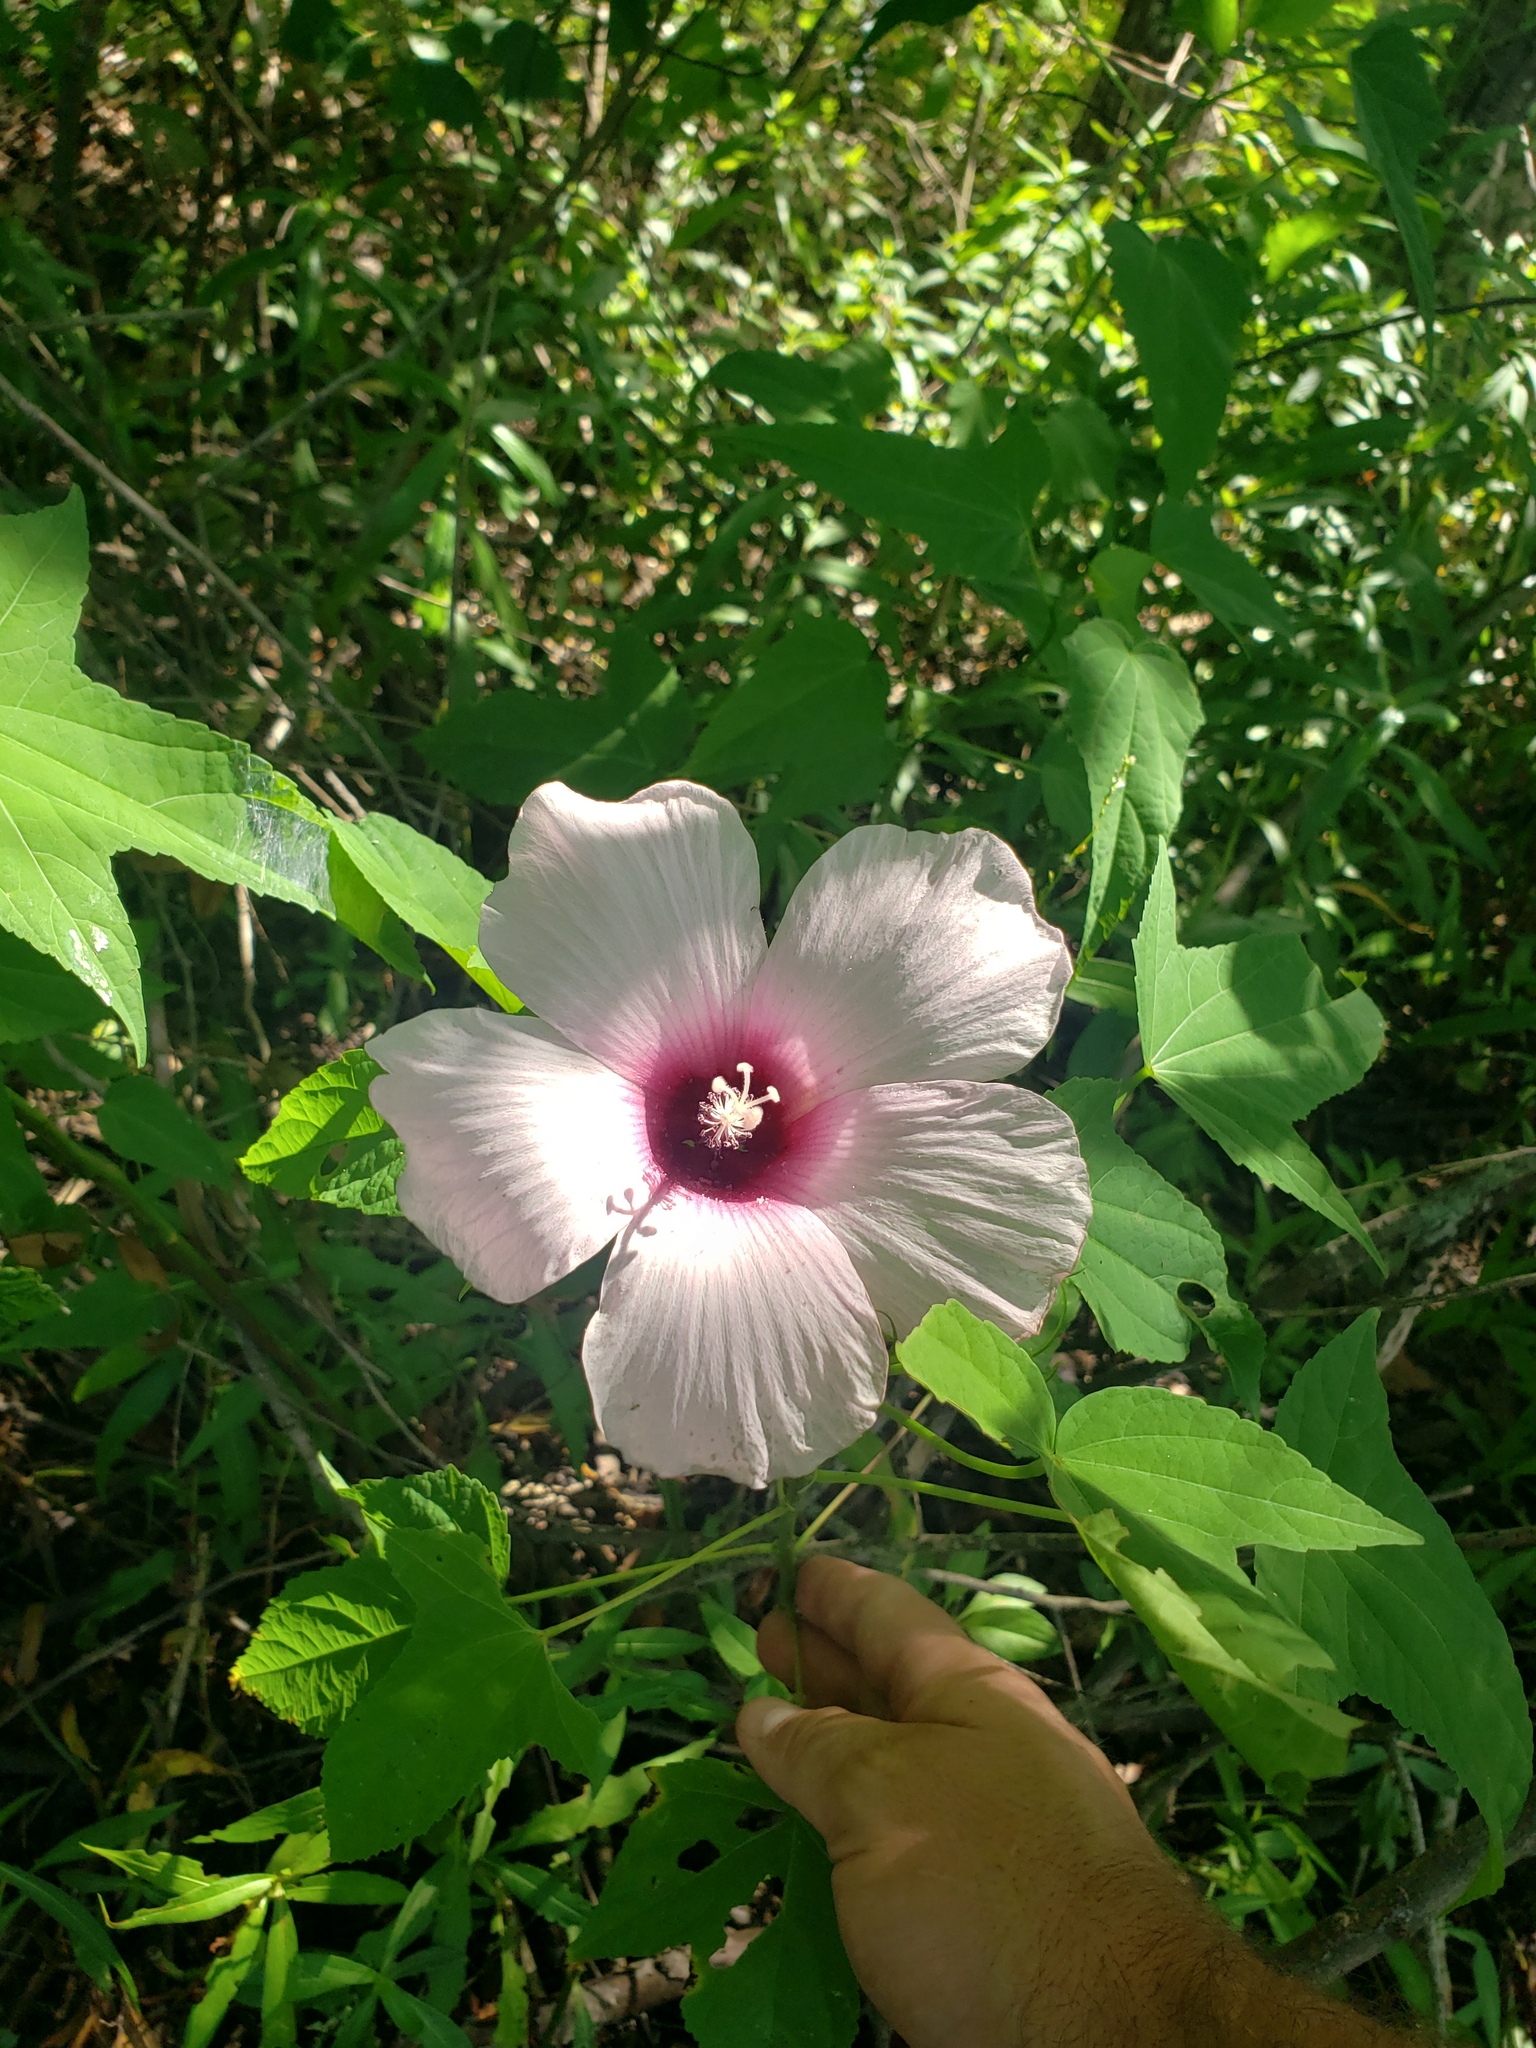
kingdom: Plantae
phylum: Tracheophyta
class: Magnoliopsida
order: Malvales
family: Malvaceae
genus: Hibiscus
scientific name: Hibiscus laevis
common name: Scarlet rose-mallow
